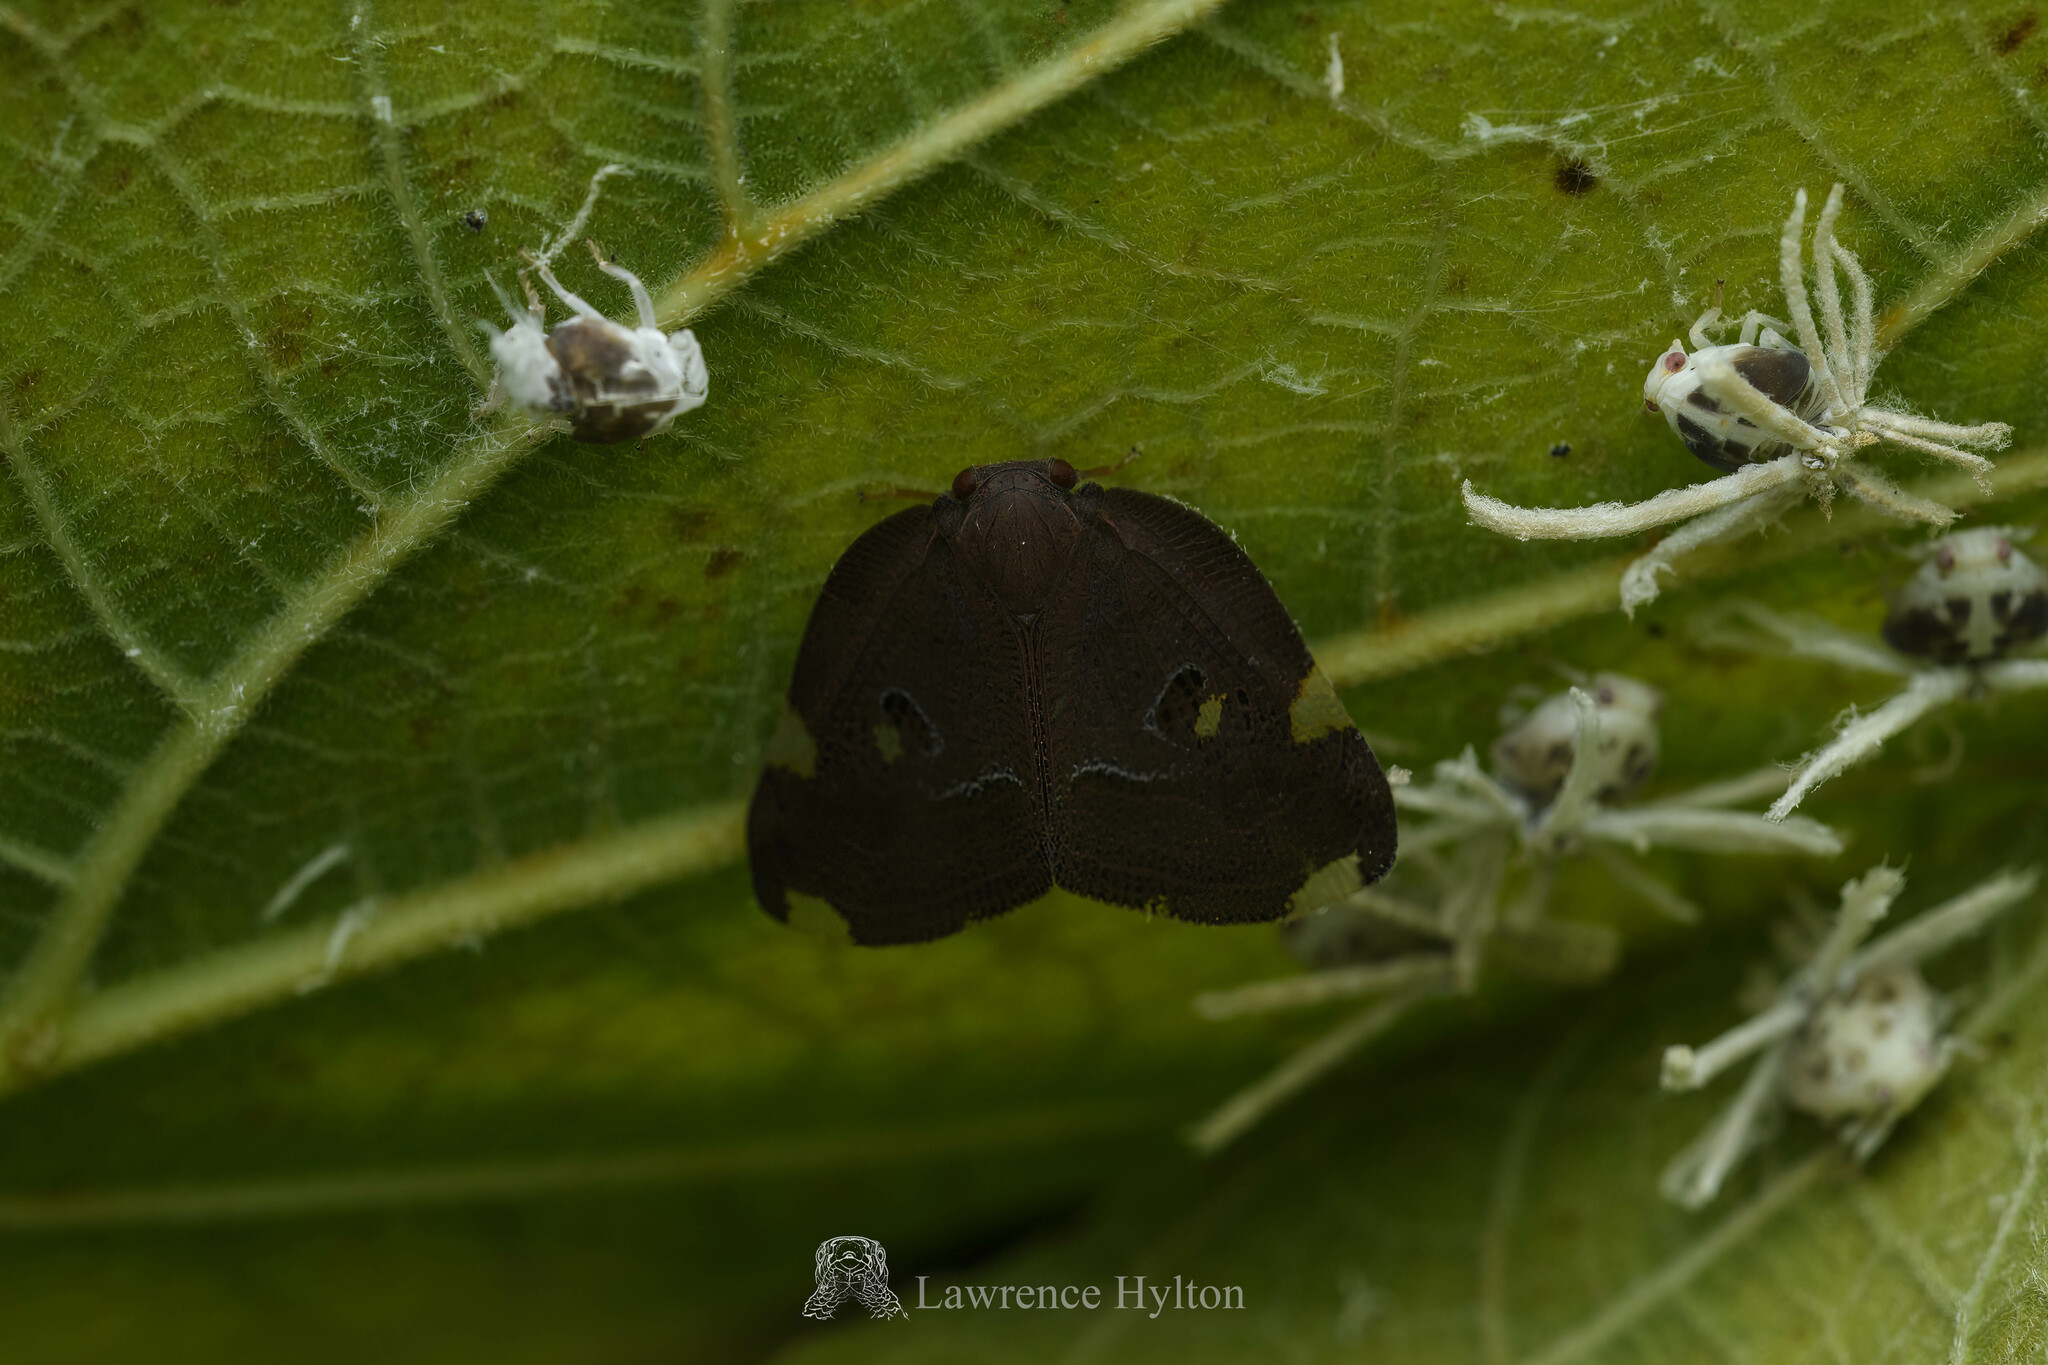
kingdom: Animalia
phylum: Arthropoda
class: Insecta
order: Hemiptera
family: Ricaniidae
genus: Ricania
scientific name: Ricania guttata
